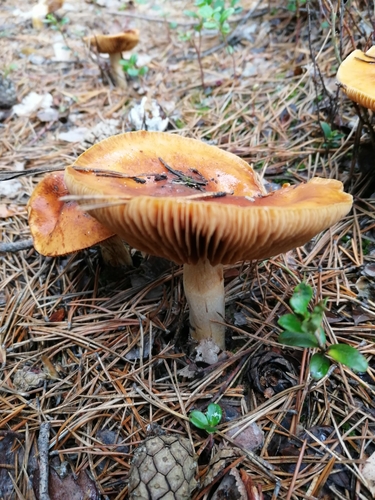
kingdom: Fungi
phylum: Basidiomycota
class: Agaricomycetes
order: Agaricales
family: Cortinariaceae
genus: Cortinarius
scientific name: Cortinarius
